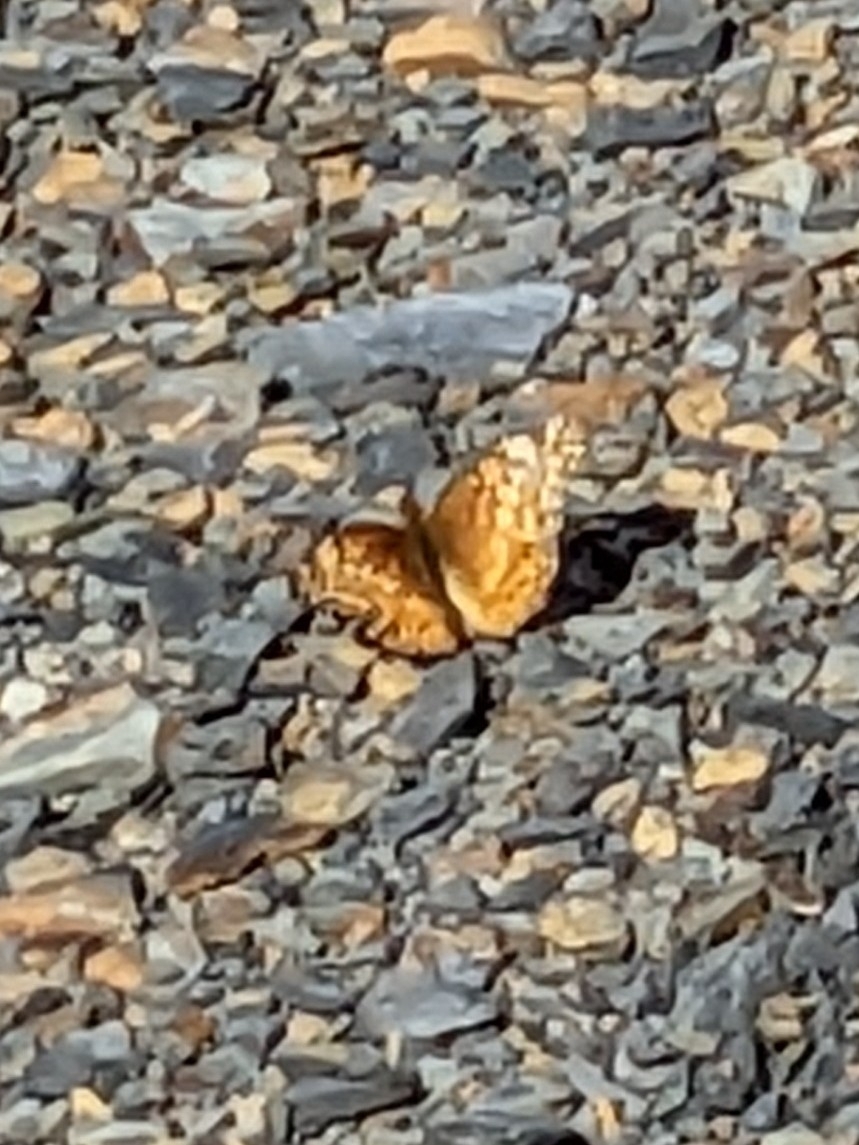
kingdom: Animalia
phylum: Arthropoda
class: Insecta
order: Lepidoptera
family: Nymphalidae
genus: Euptoieta
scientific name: Euptoieta claudia
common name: Variegated fritillary
